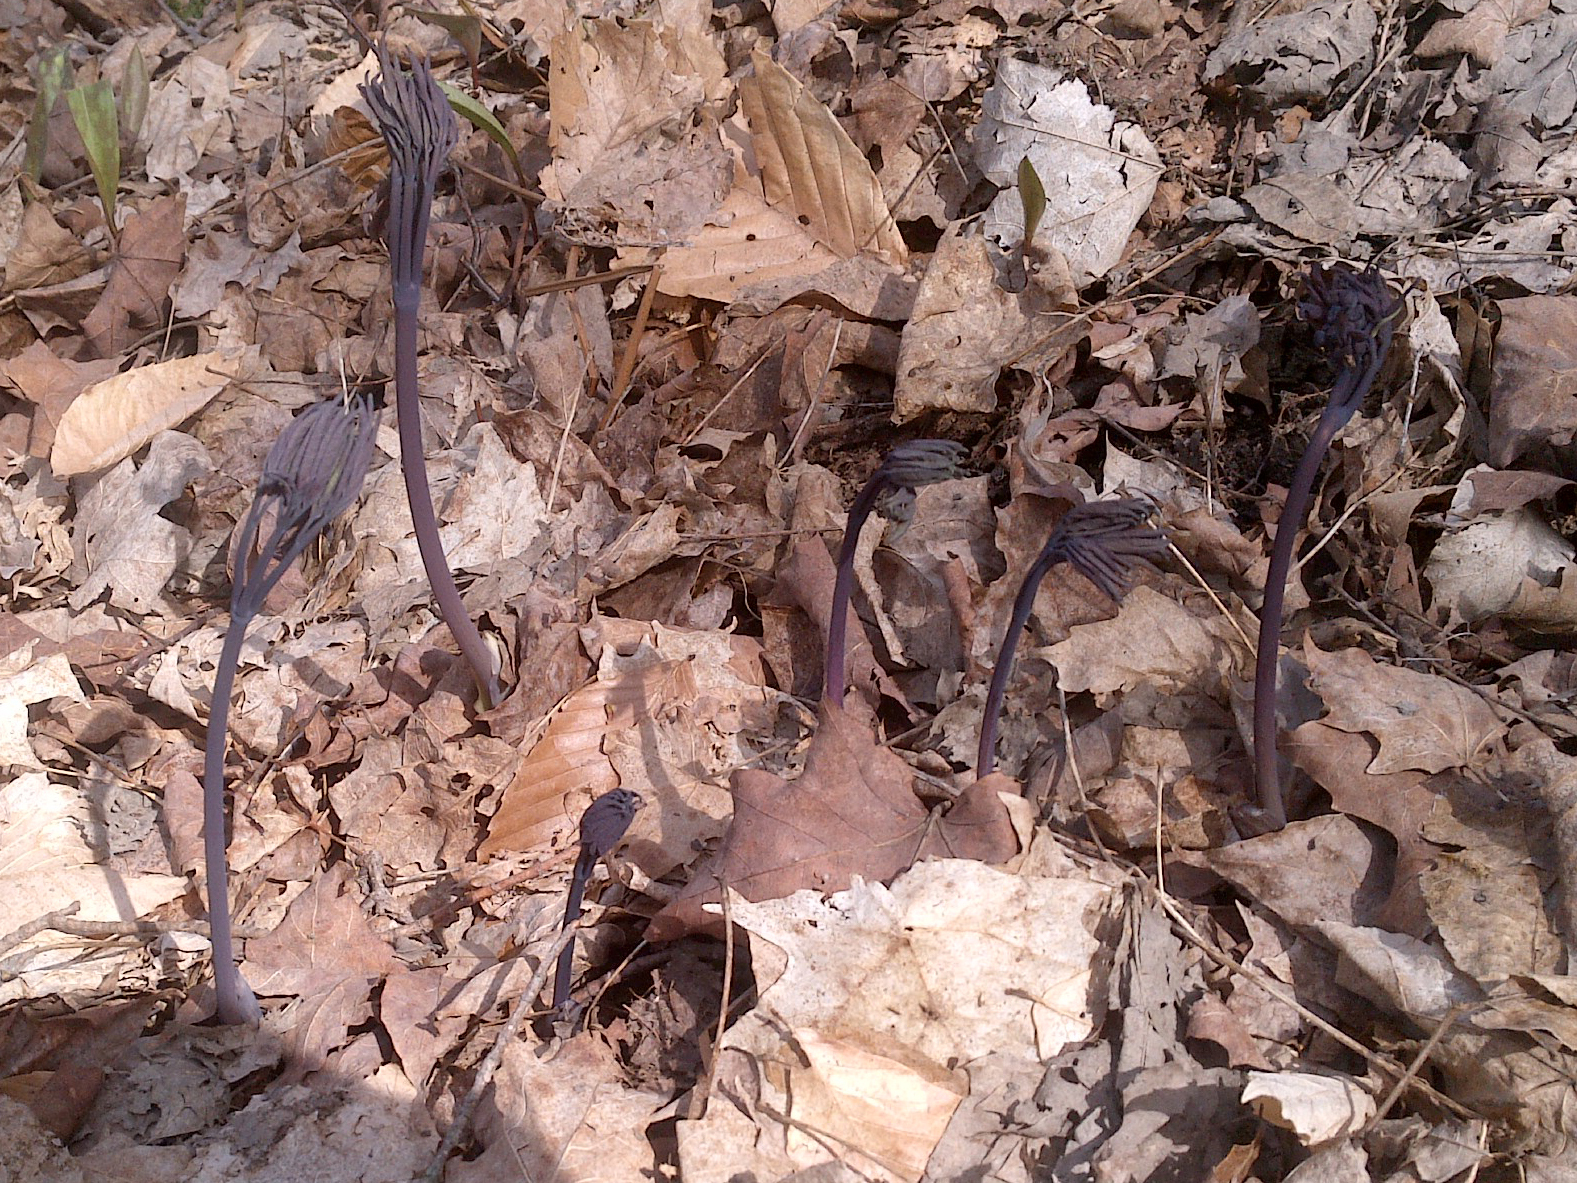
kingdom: Plantae
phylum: Tracheophyta
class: Magnoliopsida
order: Ranunculales
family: Berberidaceae
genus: Caulophyllum
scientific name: Caulophyllum giganteum
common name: Blue cohosh
